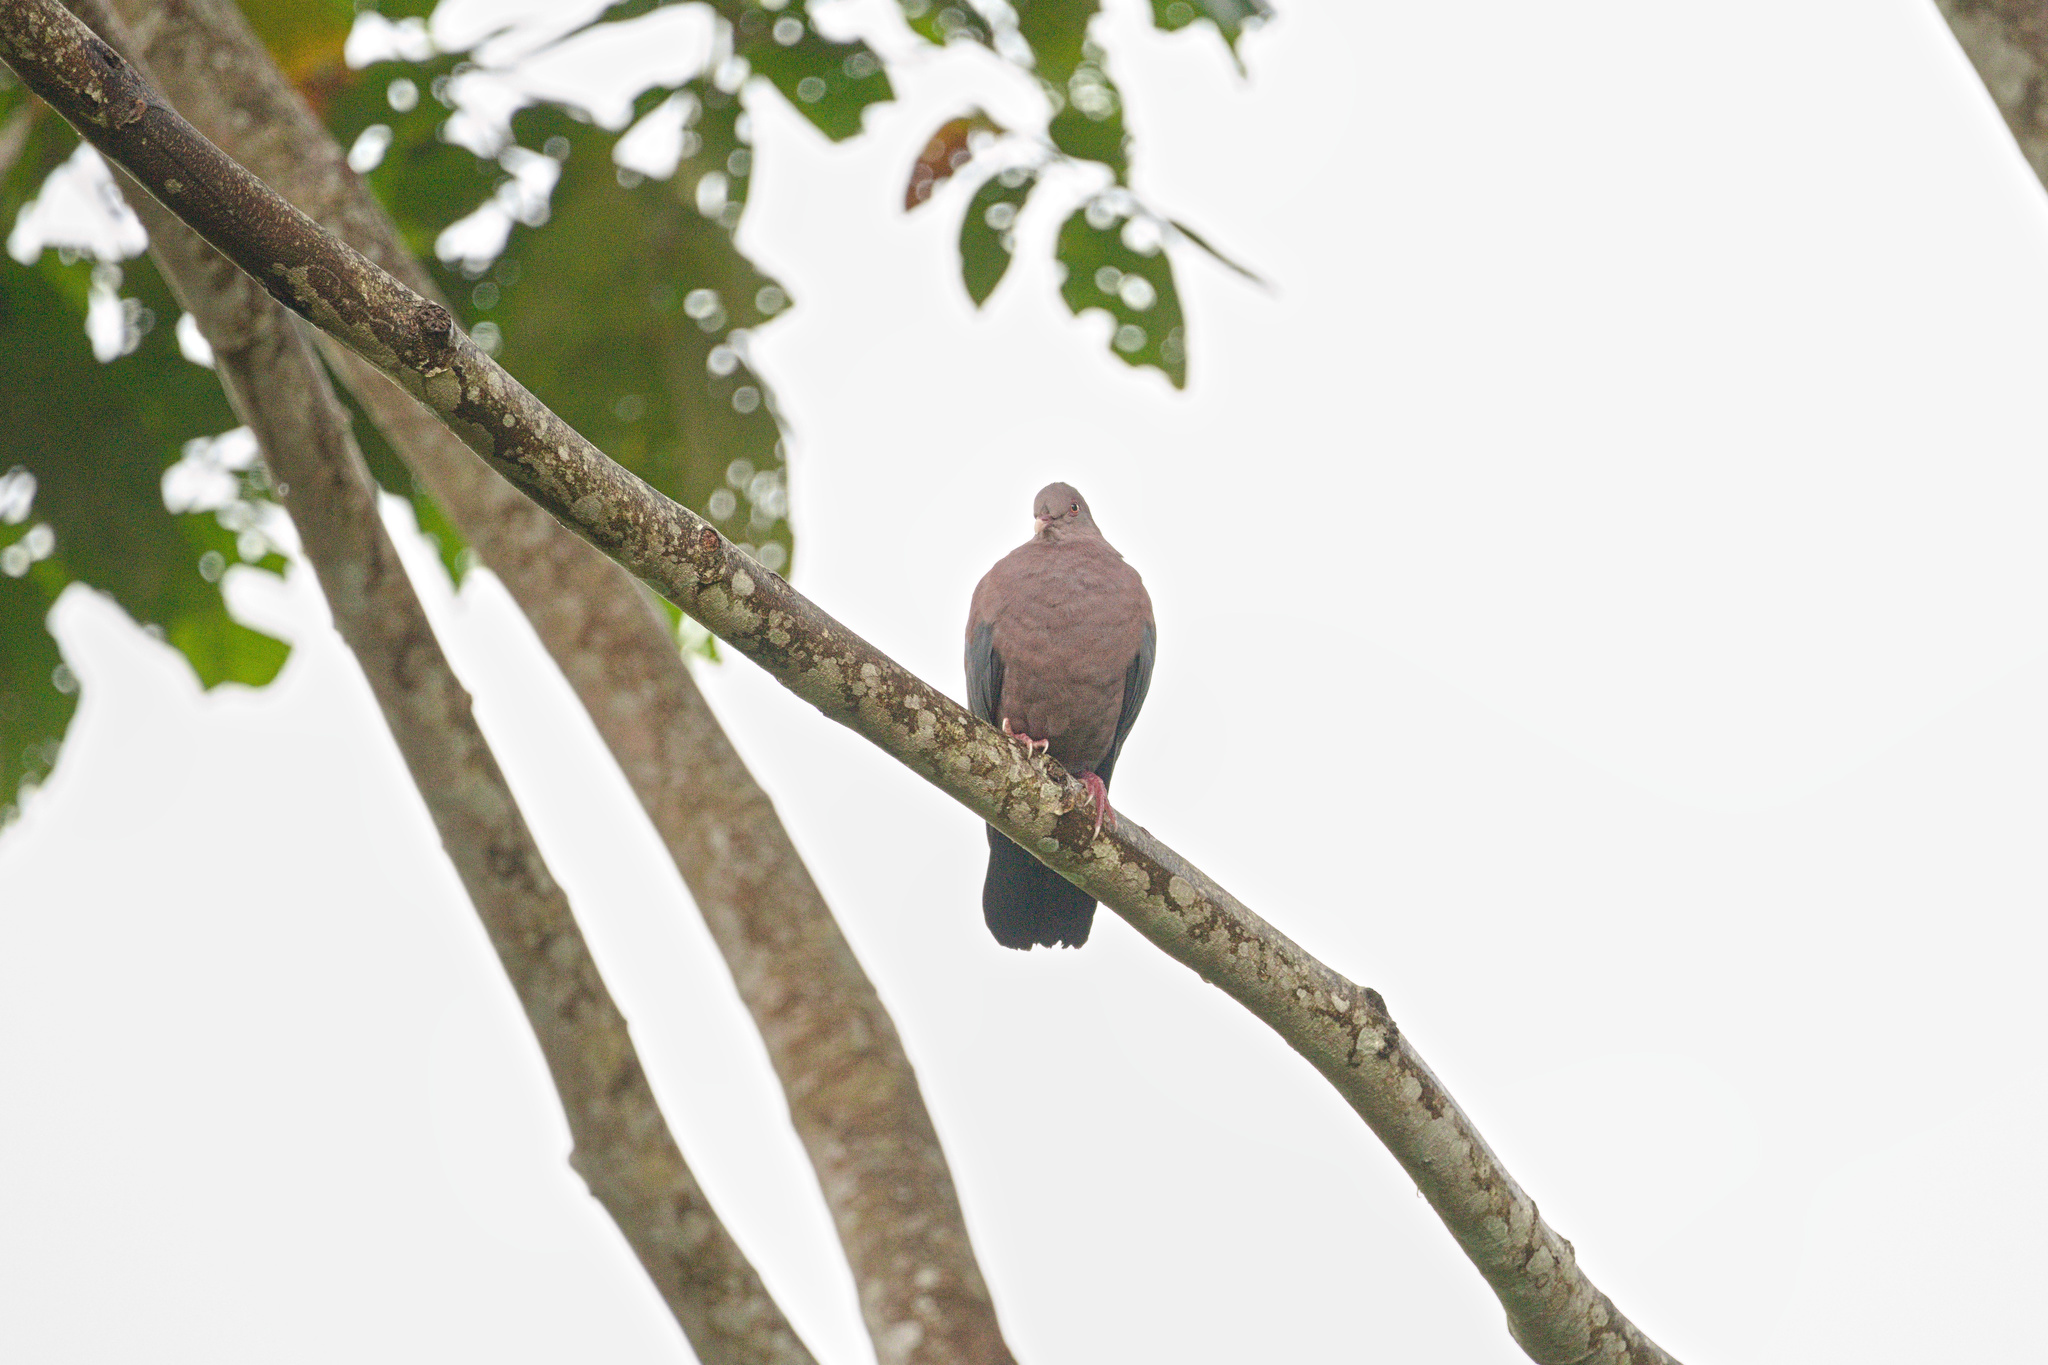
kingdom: Animalia
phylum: Chordata
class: Aves
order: Columbiformes
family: Columbidae
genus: Patagioenas
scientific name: Patagioenas flavirostris
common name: Red-billed pigeon
